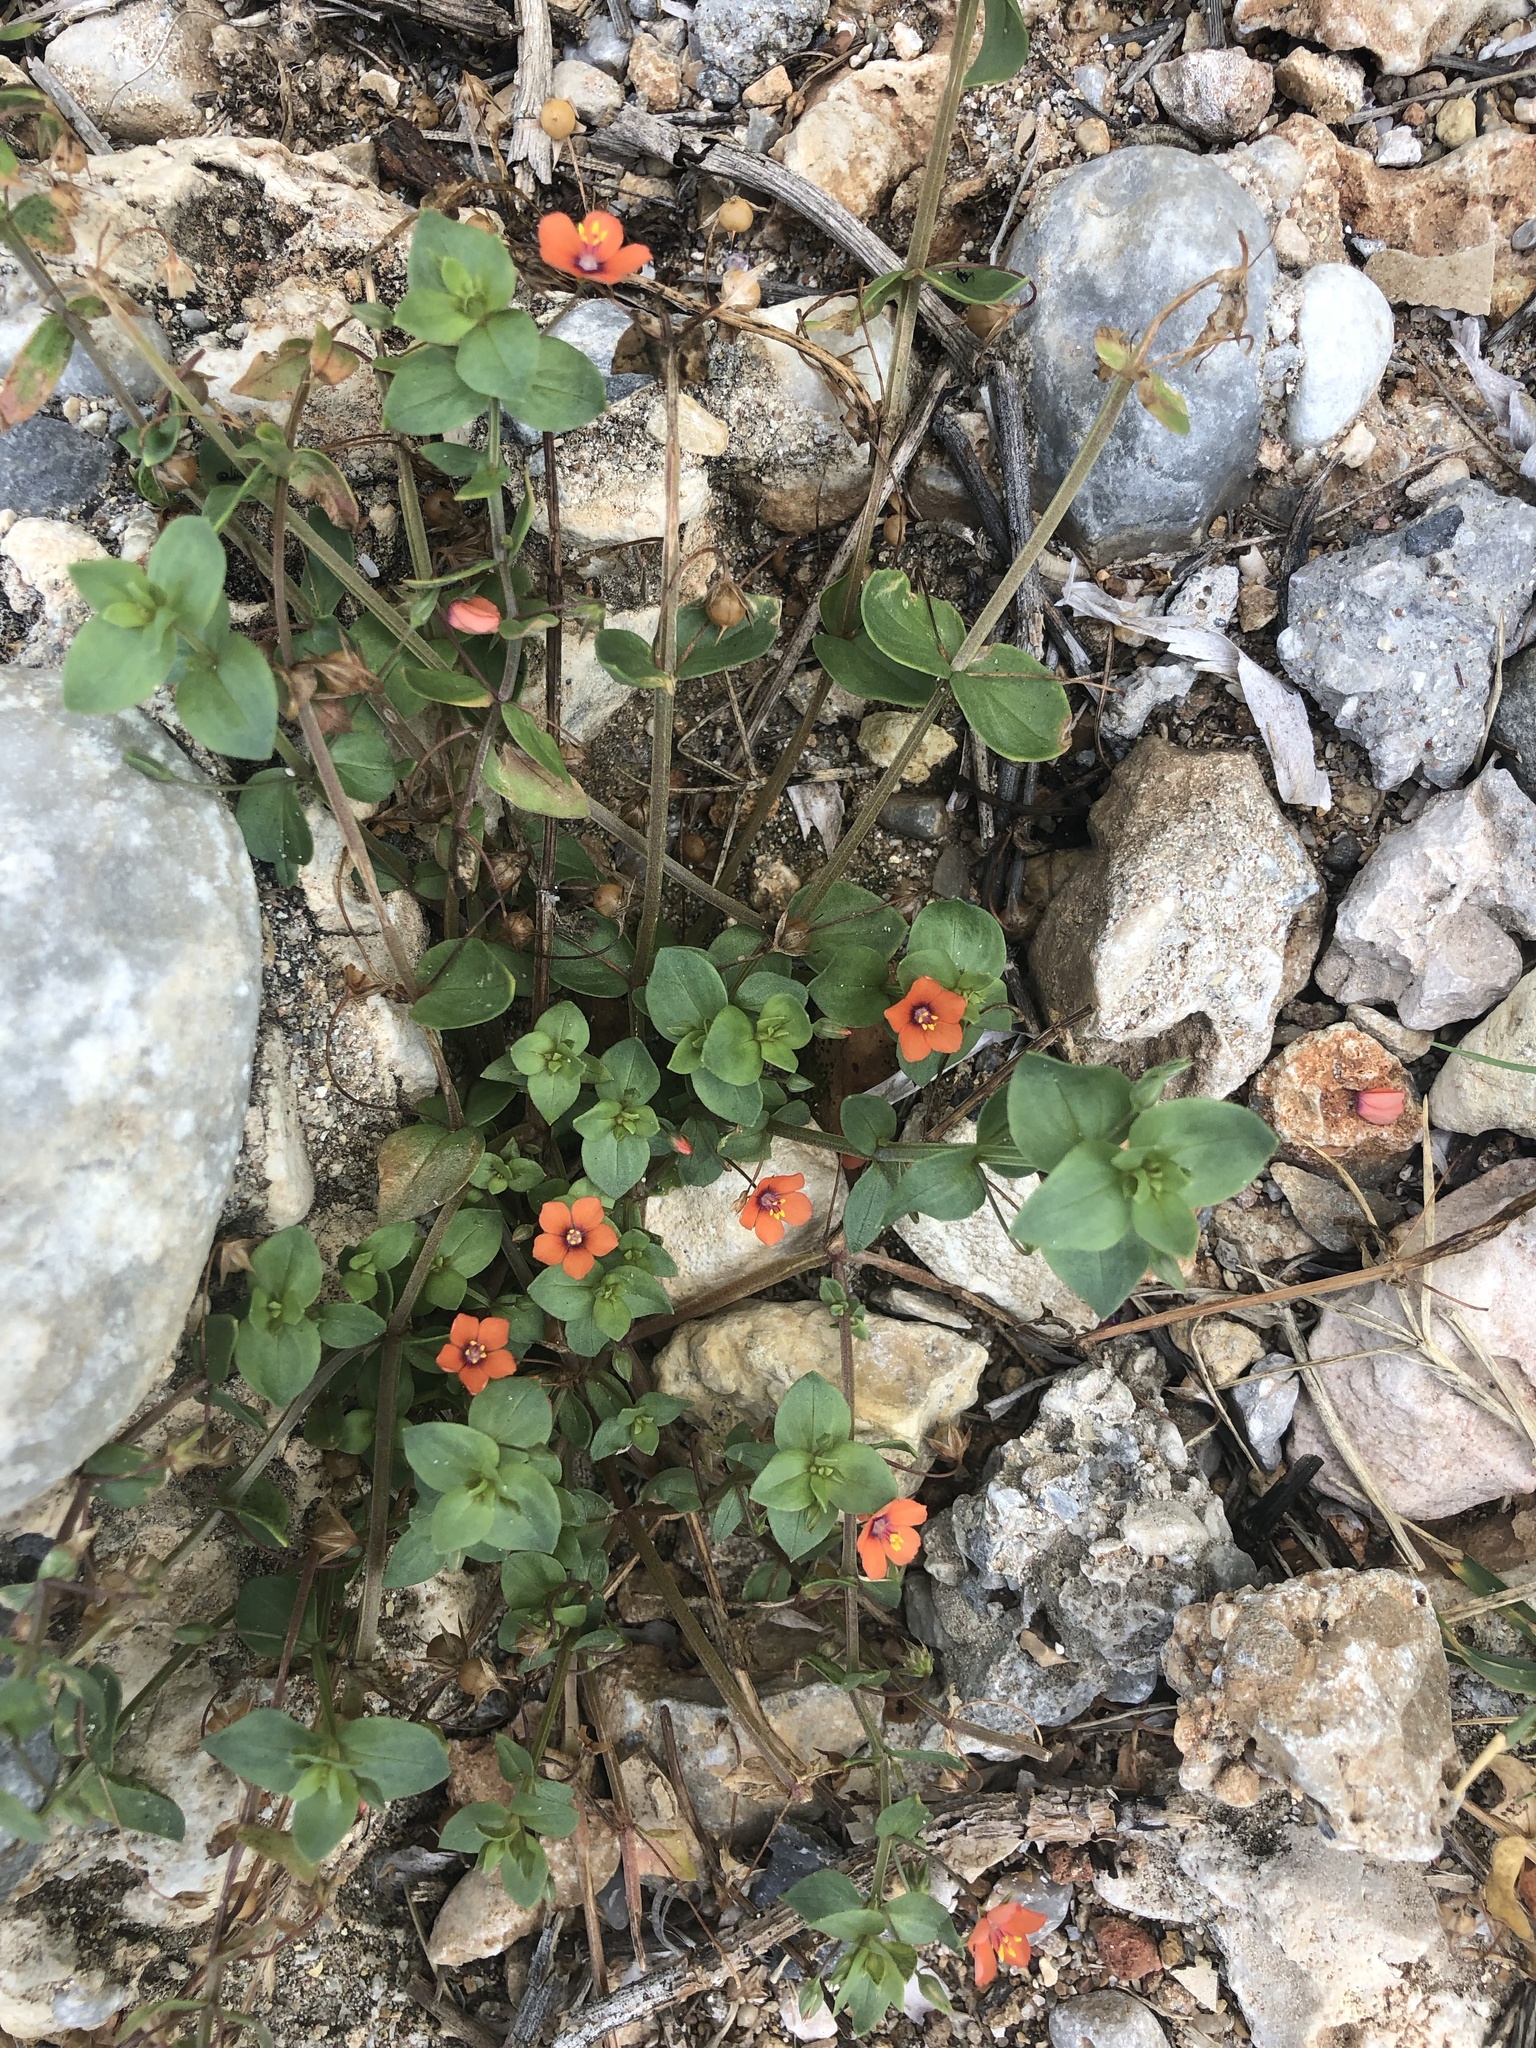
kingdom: Plantae
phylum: Tracheophyta
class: Magnoliopsida
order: Ericales
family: Primulaceae
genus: Lysimachia
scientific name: Lysimachia arvensis
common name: Scarlet pimpernel
